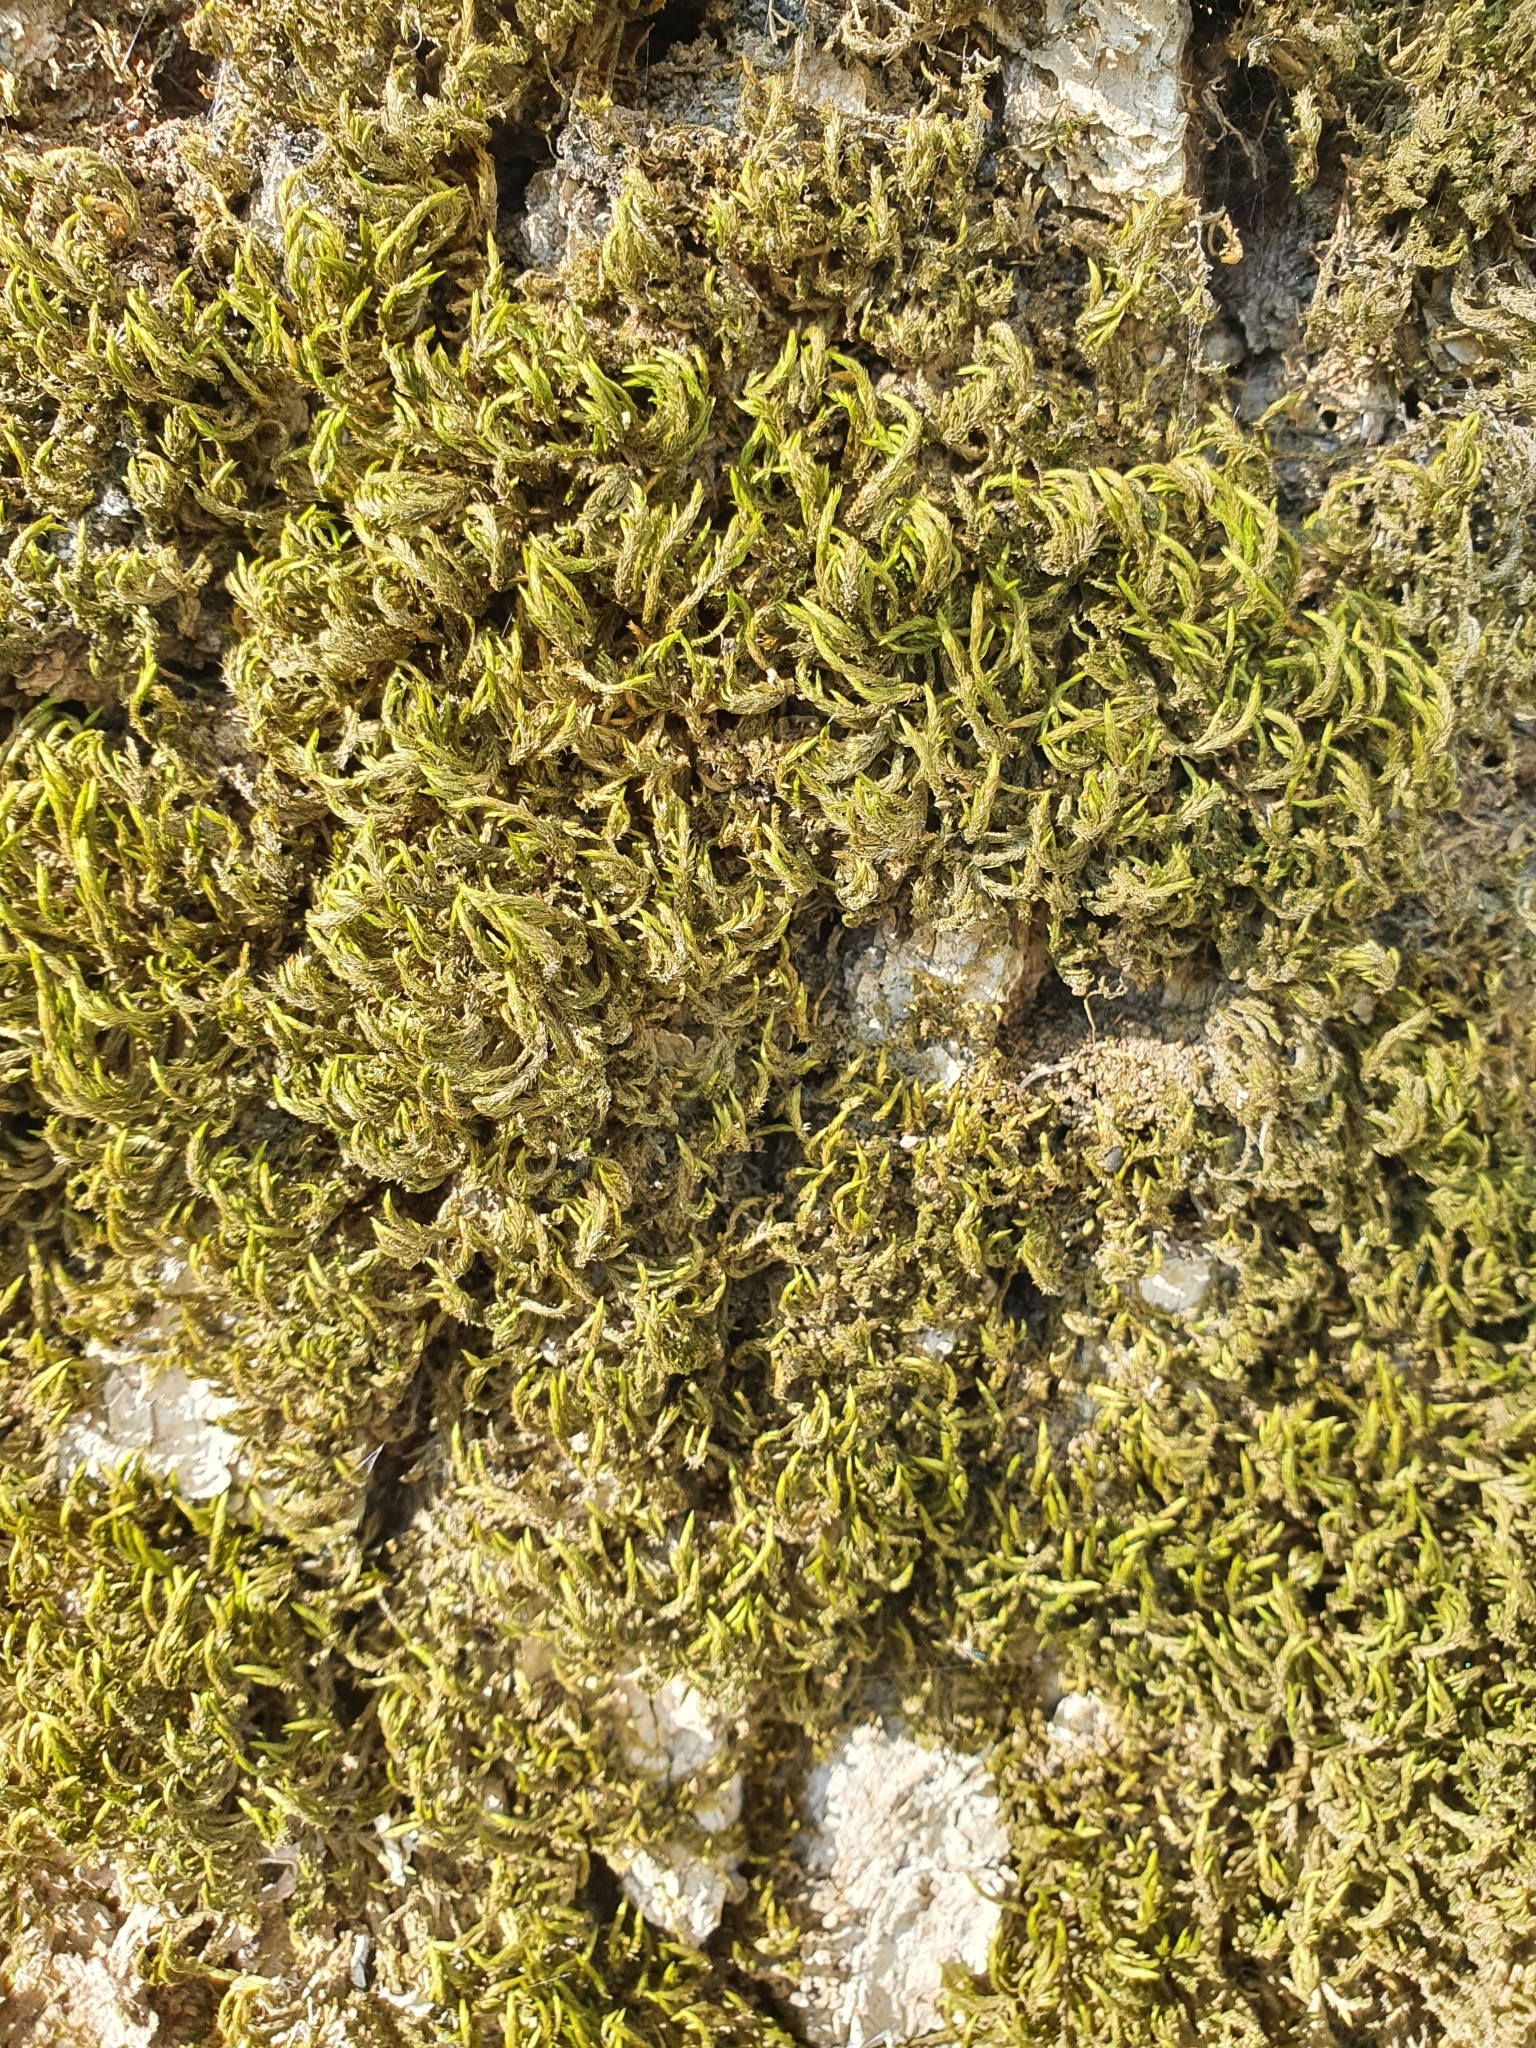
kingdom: Plantae
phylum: Bryophyta
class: Bryopsida
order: Hypnales
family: Leucodontaceae
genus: Leucodon
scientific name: Leucodon sciuroides
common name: Squirrel-tail moss
